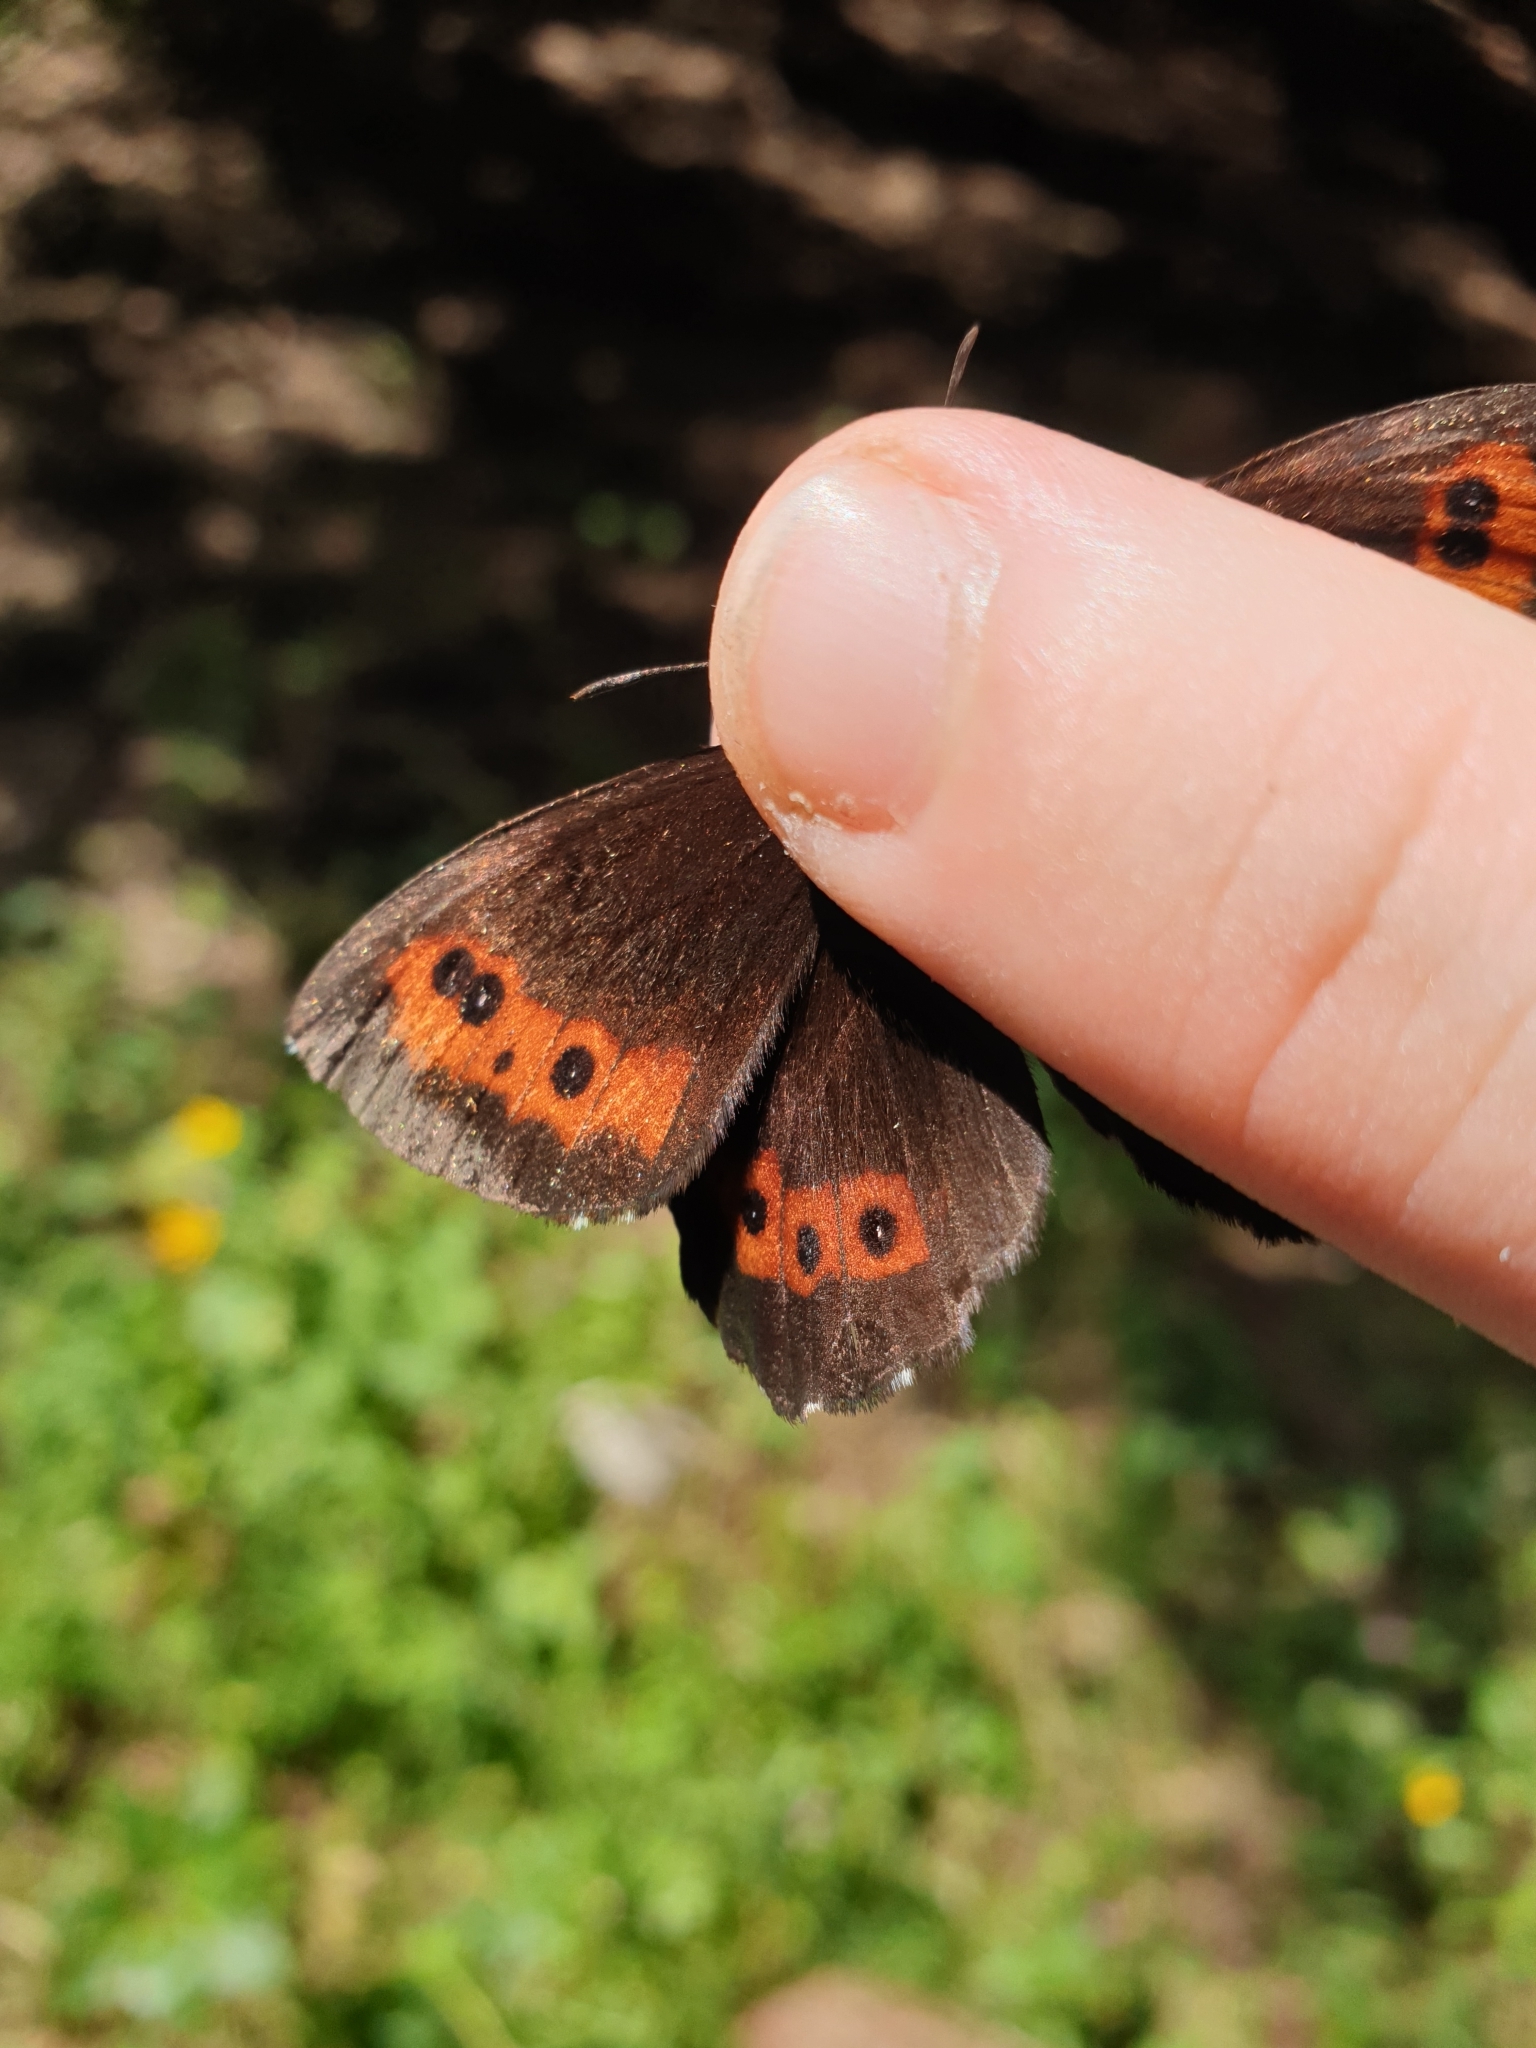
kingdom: Animalia
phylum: Arthropoda
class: Insecta
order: Lepidoptera
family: Nymphalidae
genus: Erebia
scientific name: Erebia ligea
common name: Arran brown
